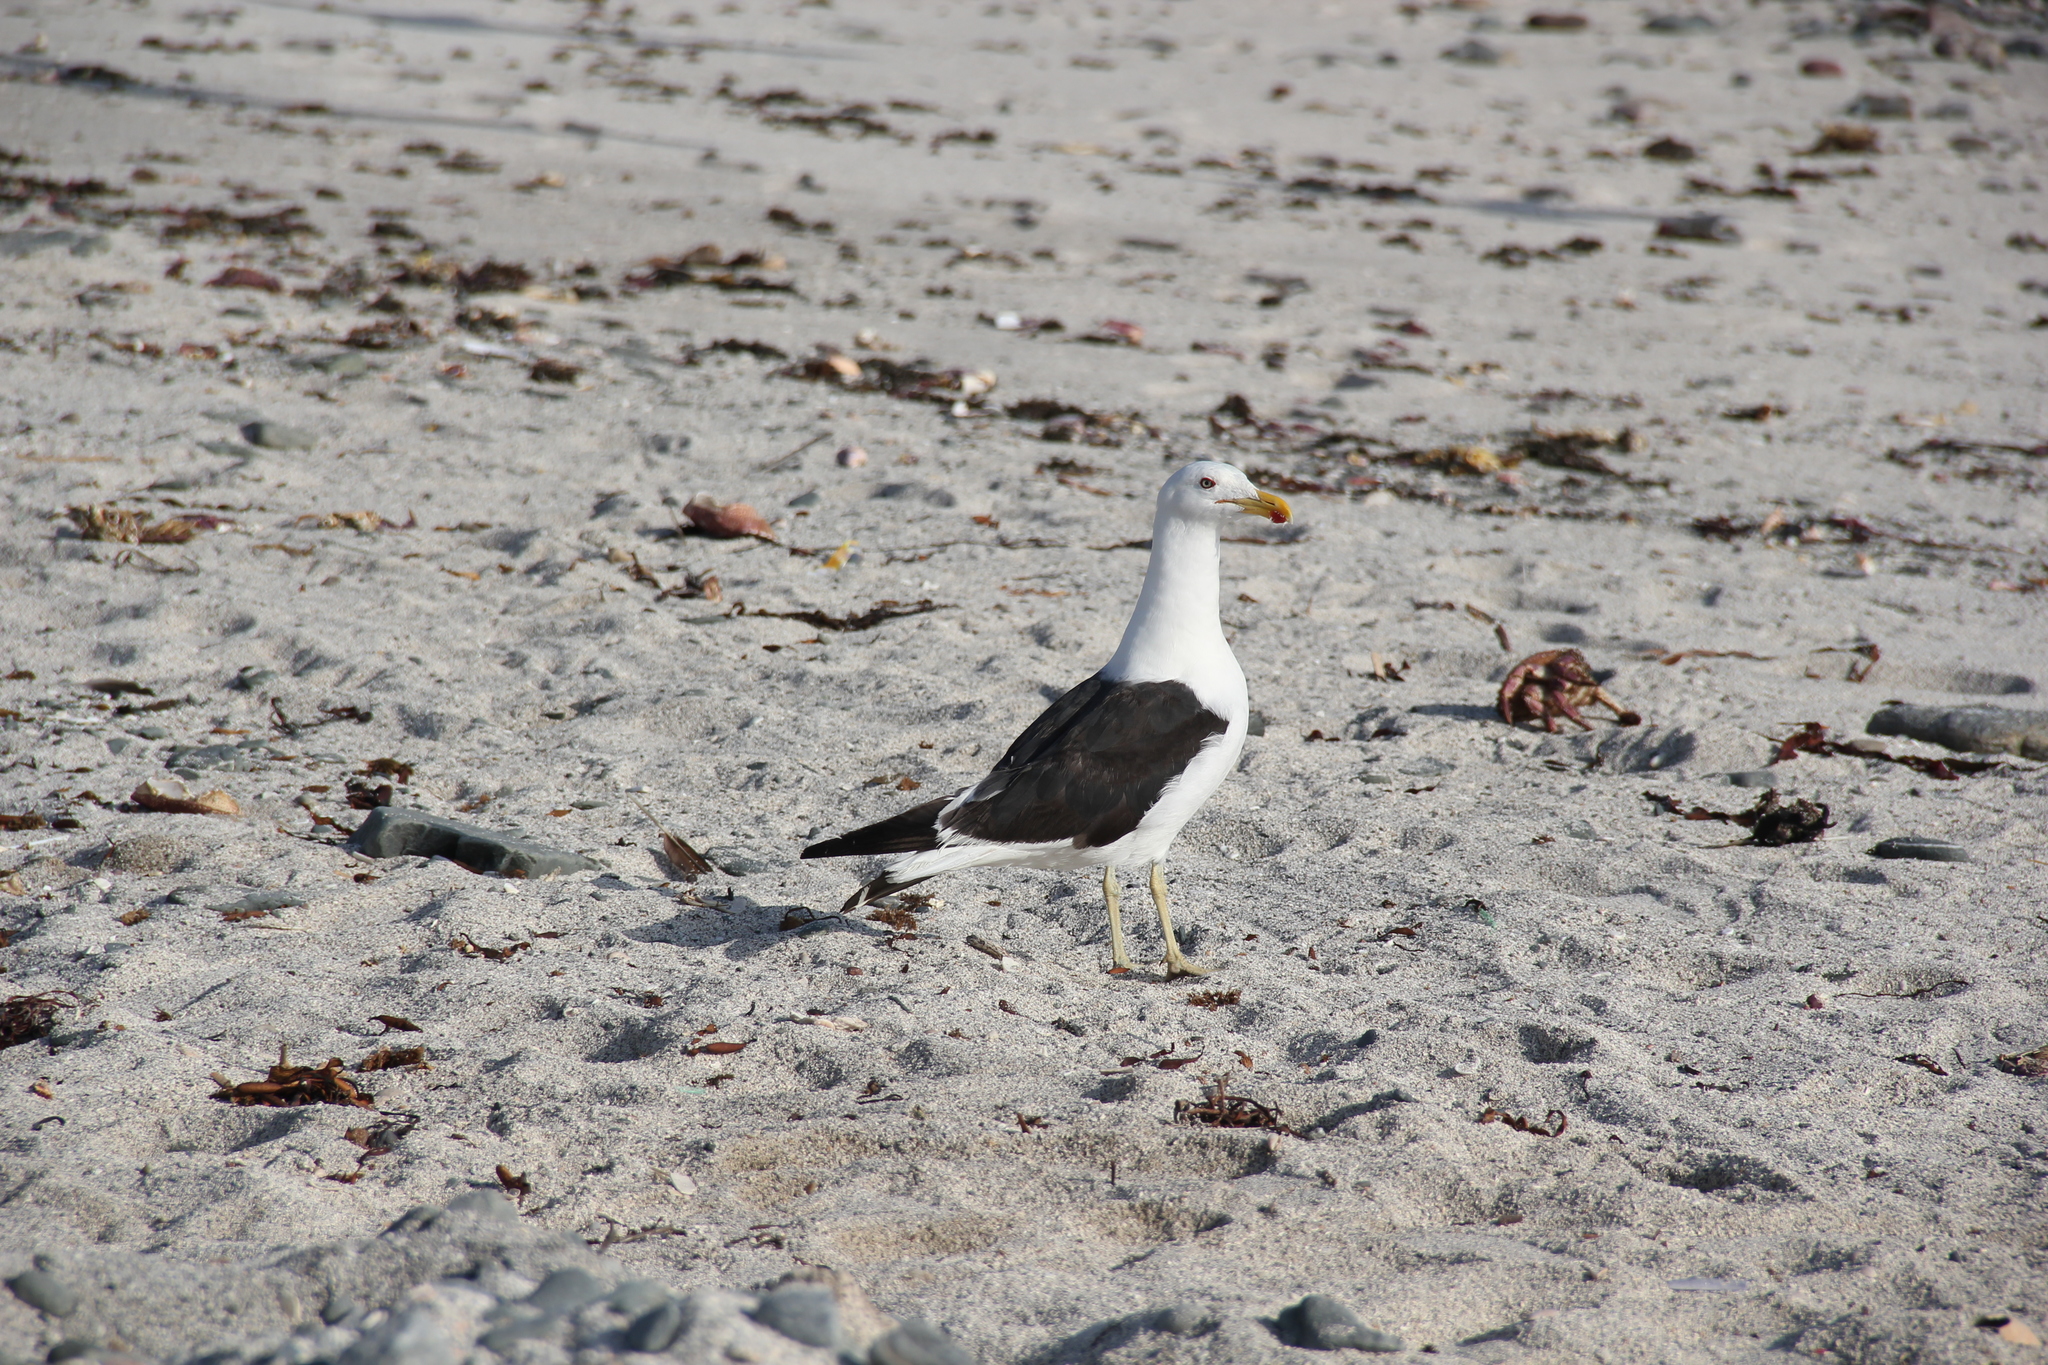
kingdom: Animalia
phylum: Chordata
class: Aves
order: Charadriiformes
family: Laridae
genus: Larus
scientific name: Larus dominicanus
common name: Kelp gull
